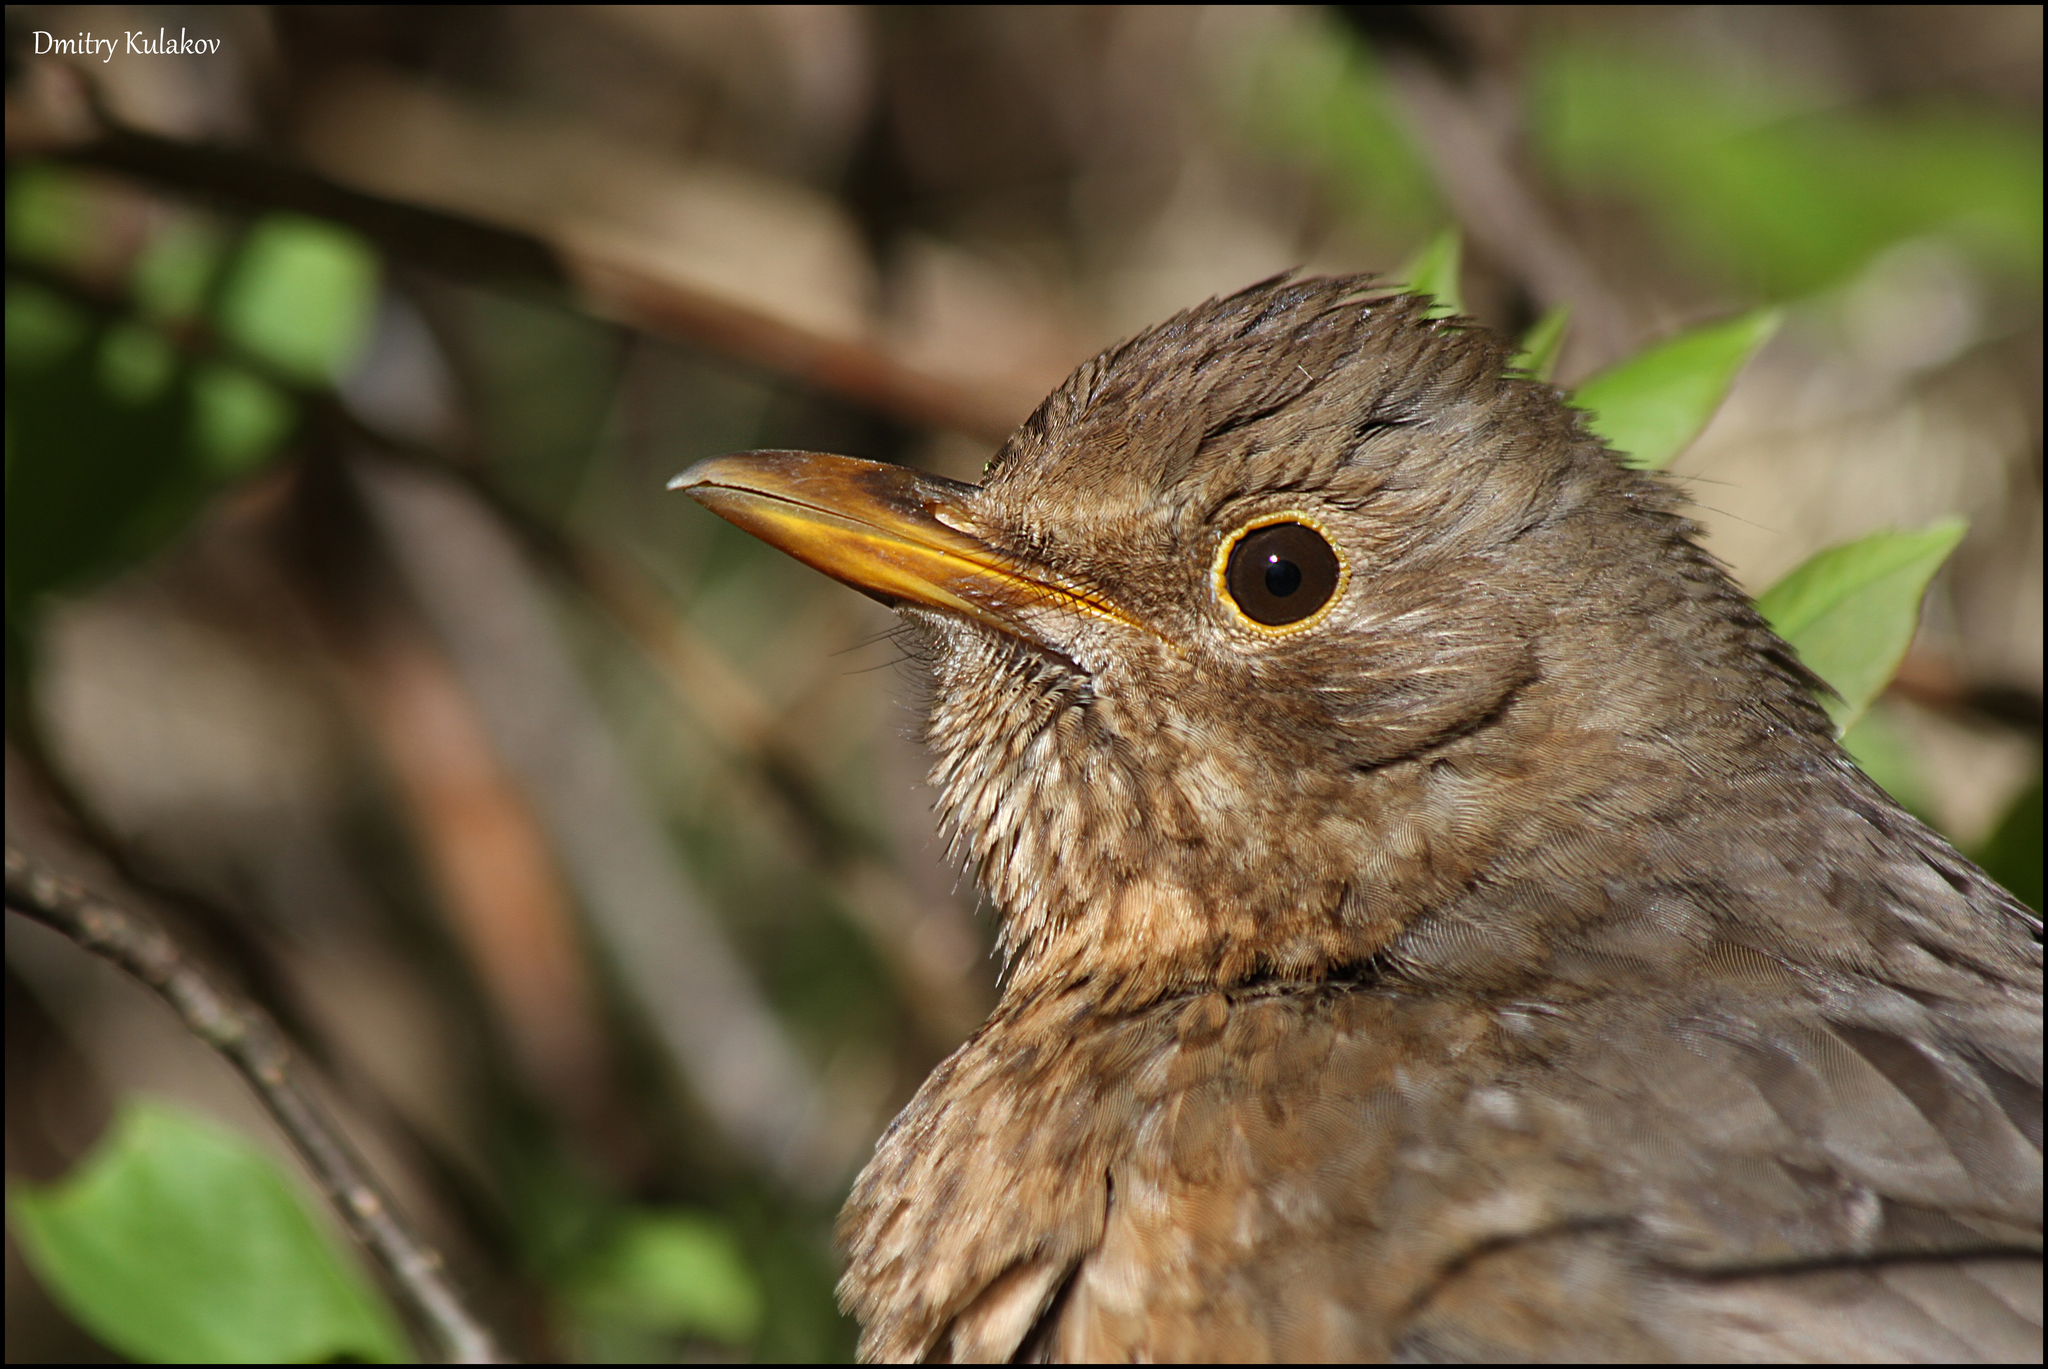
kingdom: Animalia
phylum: Chordata
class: Aves
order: Passeriformes
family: Turdidae
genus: Turdus
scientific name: Turdus merula
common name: Common blackbird
